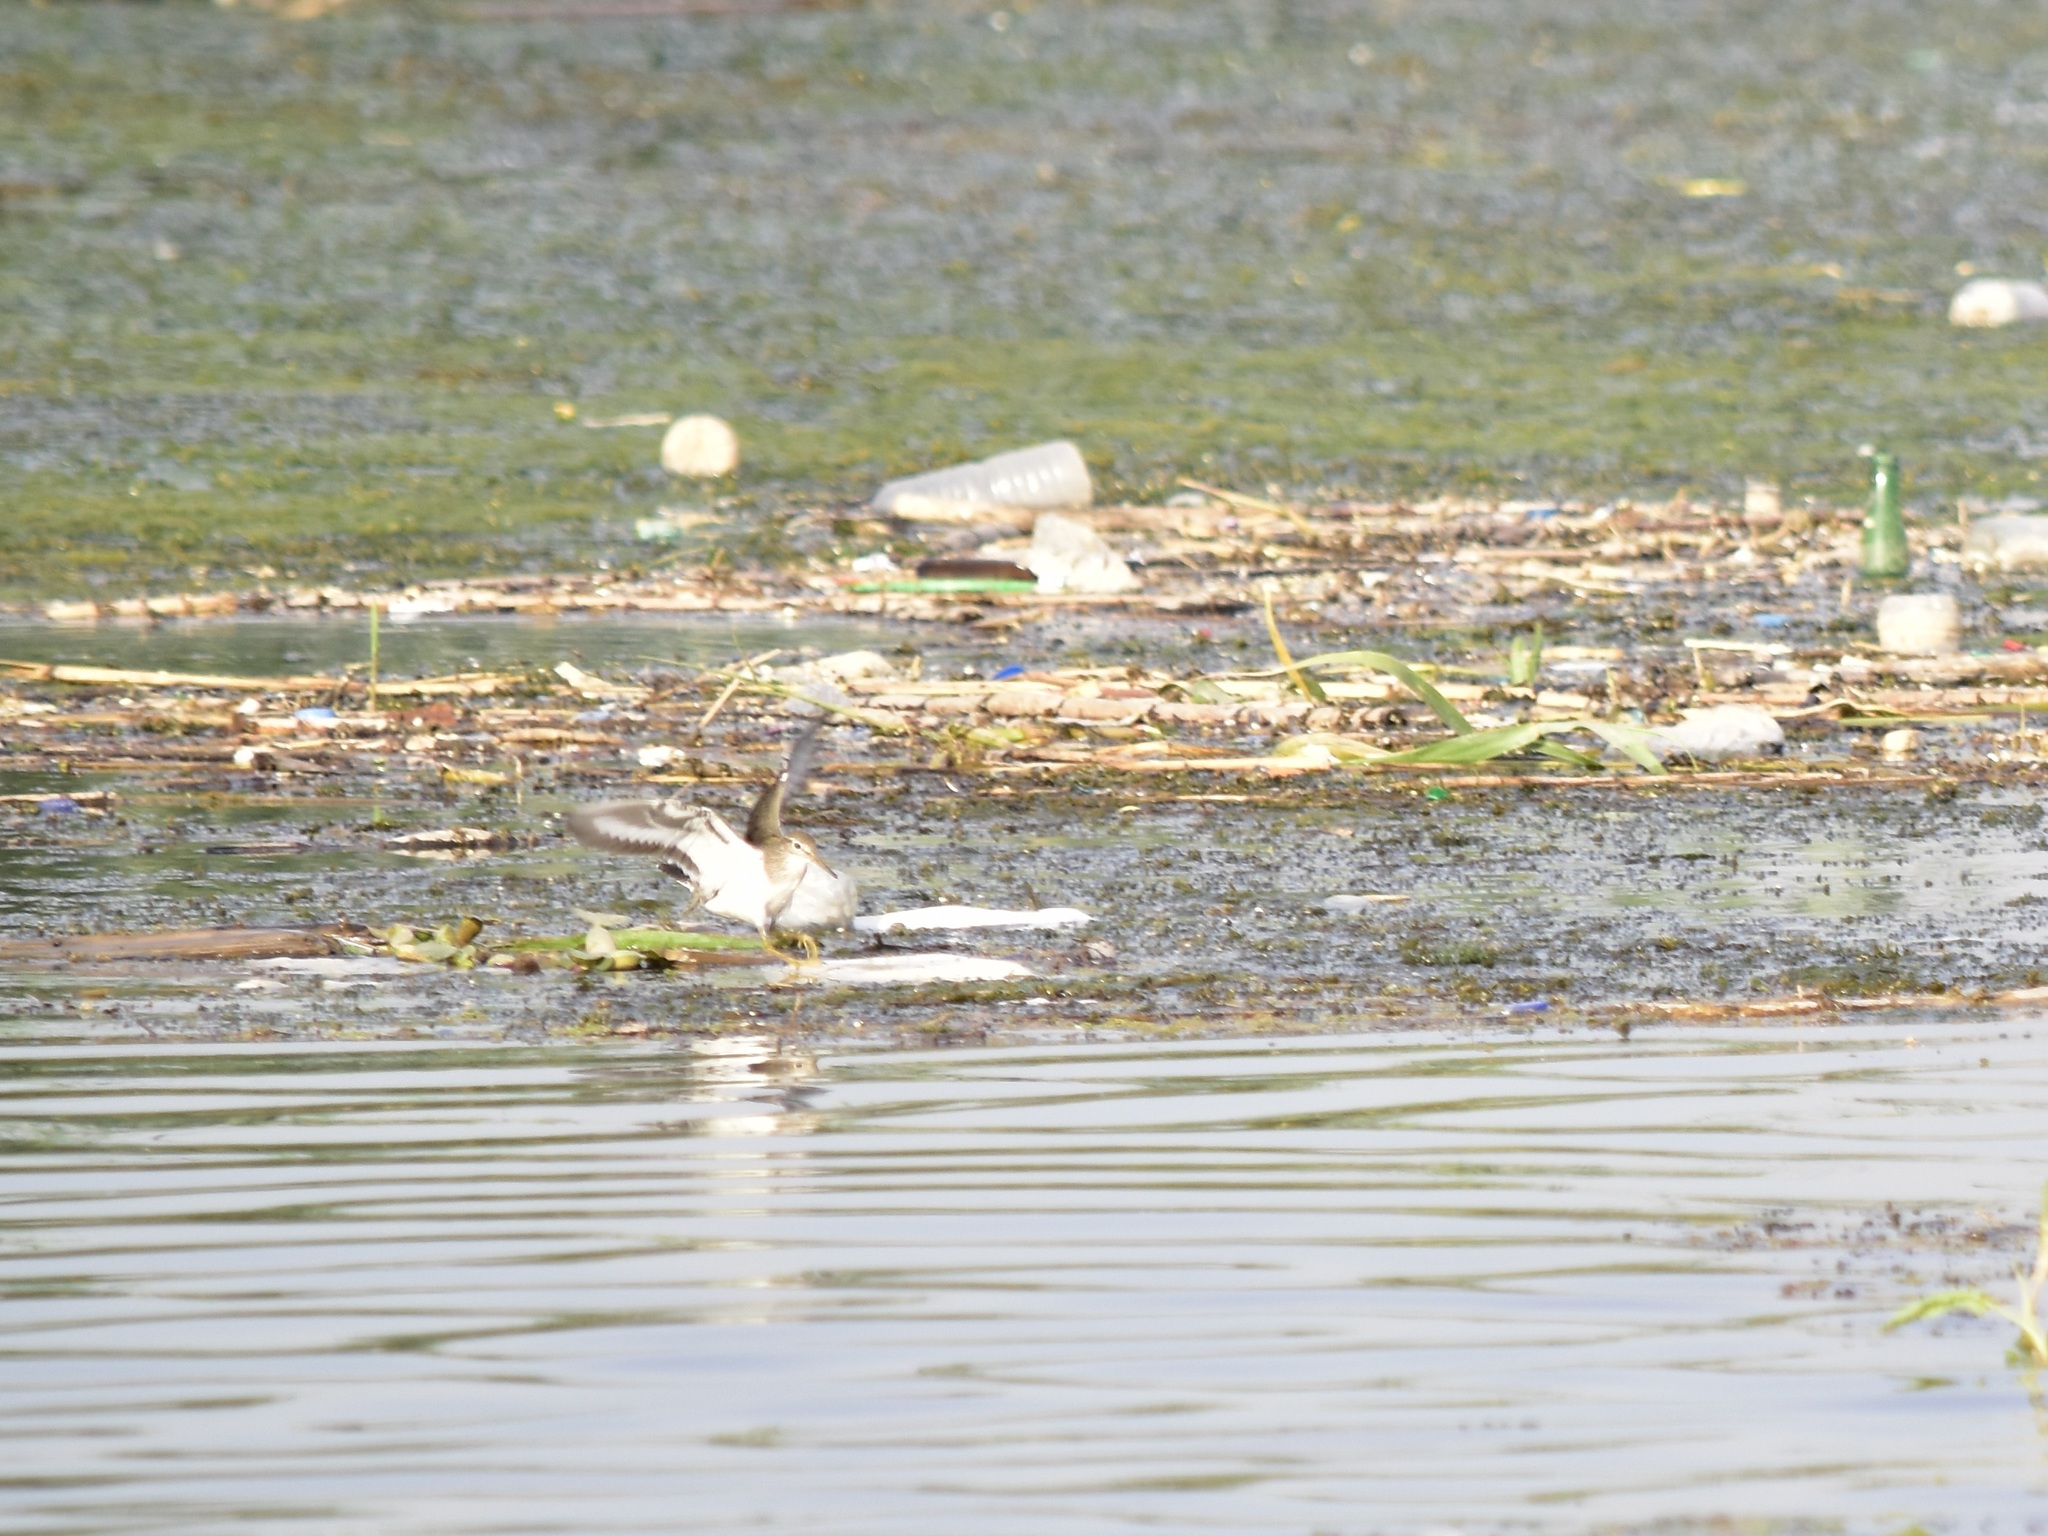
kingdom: Animalia
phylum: Chordata
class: Aves
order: Charadriiformes
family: Scolopacidae
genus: Actitis
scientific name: Actitis hypoleucos
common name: Common sandpiper
